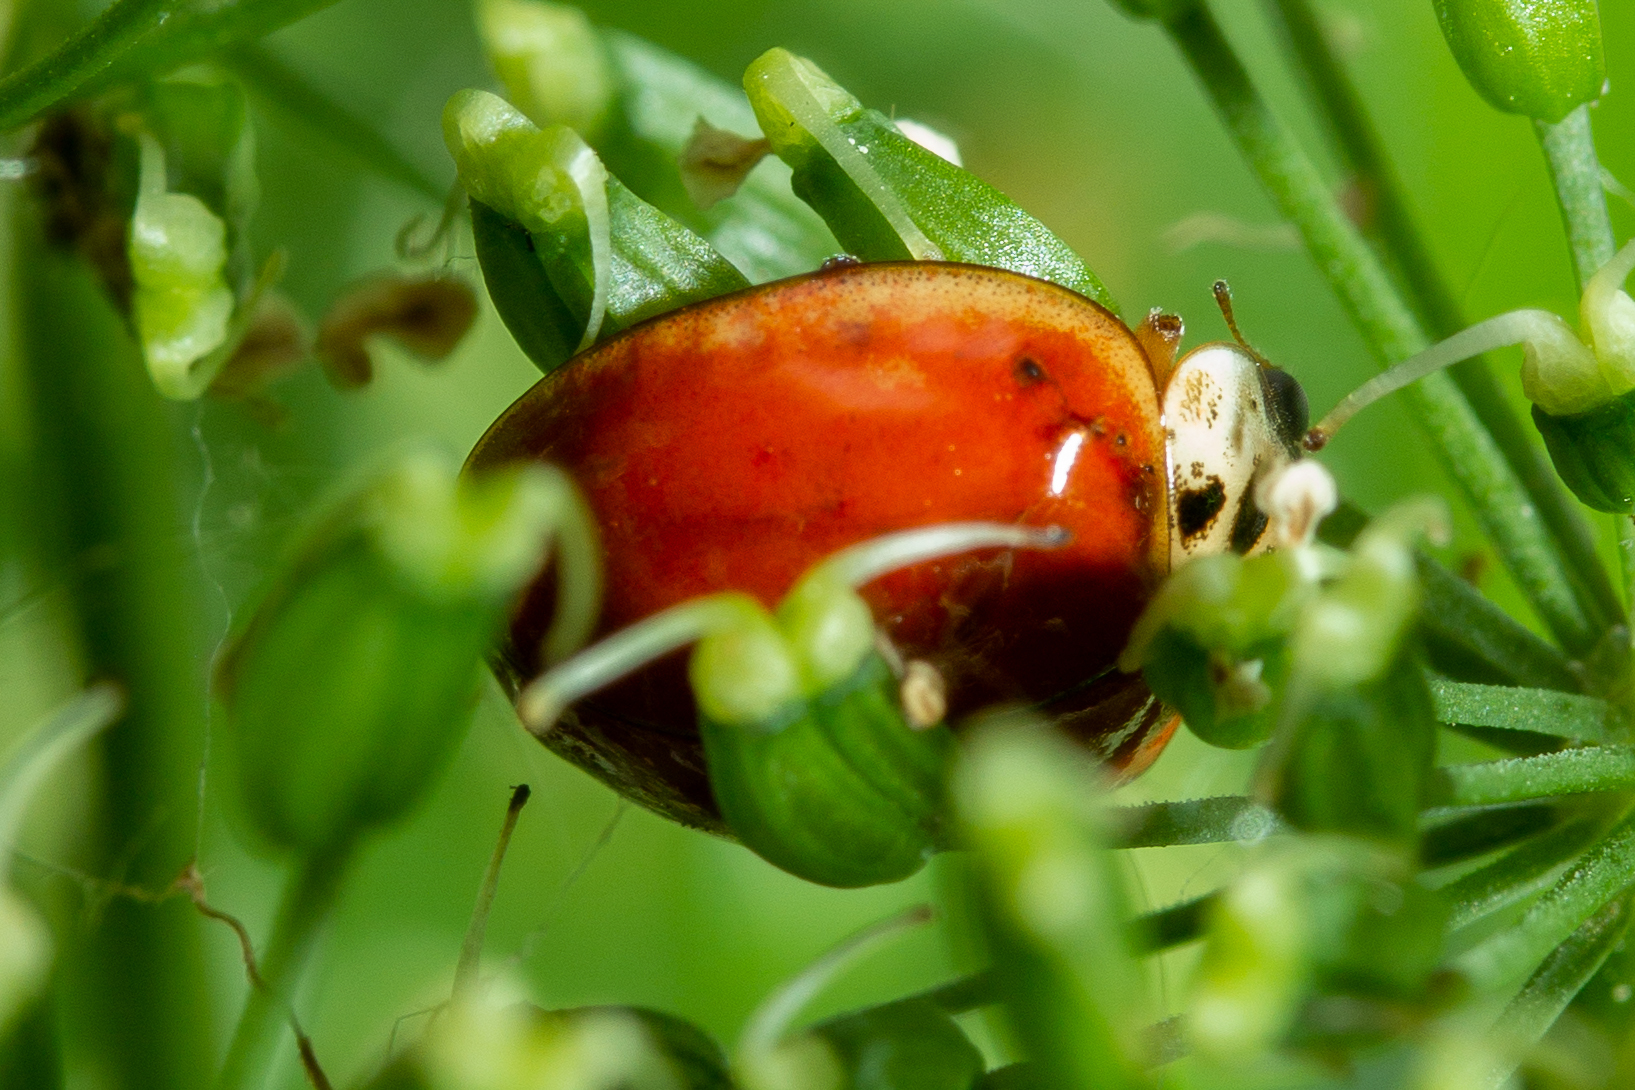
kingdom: Animalia
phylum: Arthropoda
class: Insecta
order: Coleoptera
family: Coccinellidae
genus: Harmonia
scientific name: Harmonia axyridis
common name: Harlequin ladybird
